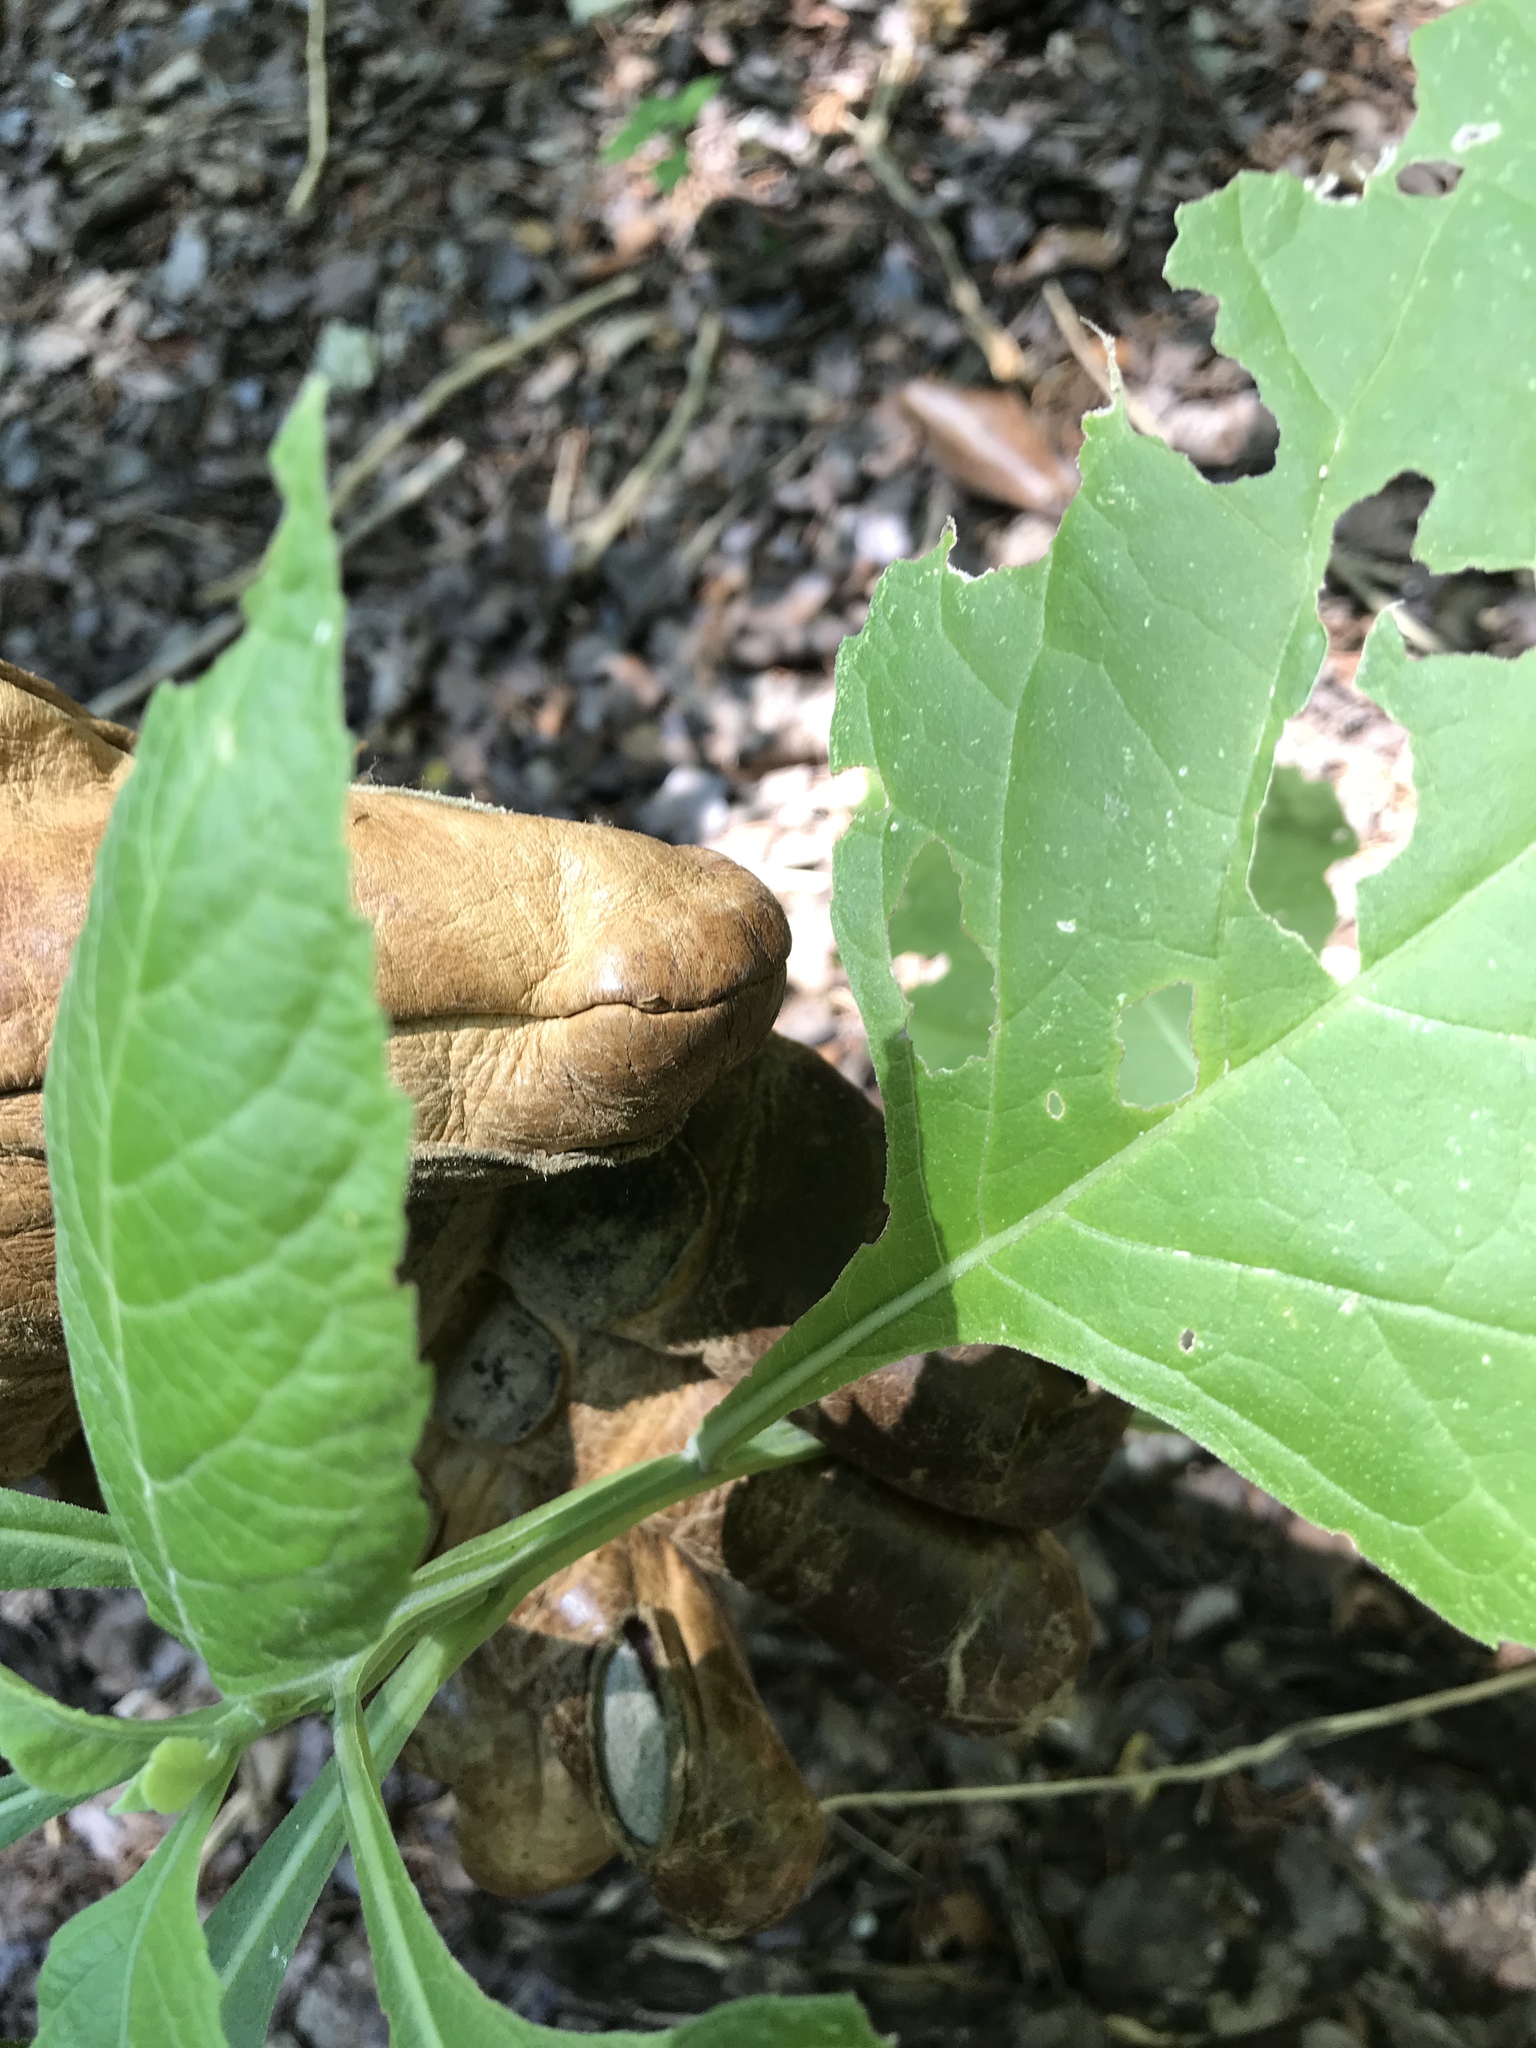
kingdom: Plantae
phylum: Tracheophyta
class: Magnoliopsida
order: Asterales
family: Asteraceae
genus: Verbesina
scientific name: Verbesina virginica
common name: Frostweed
